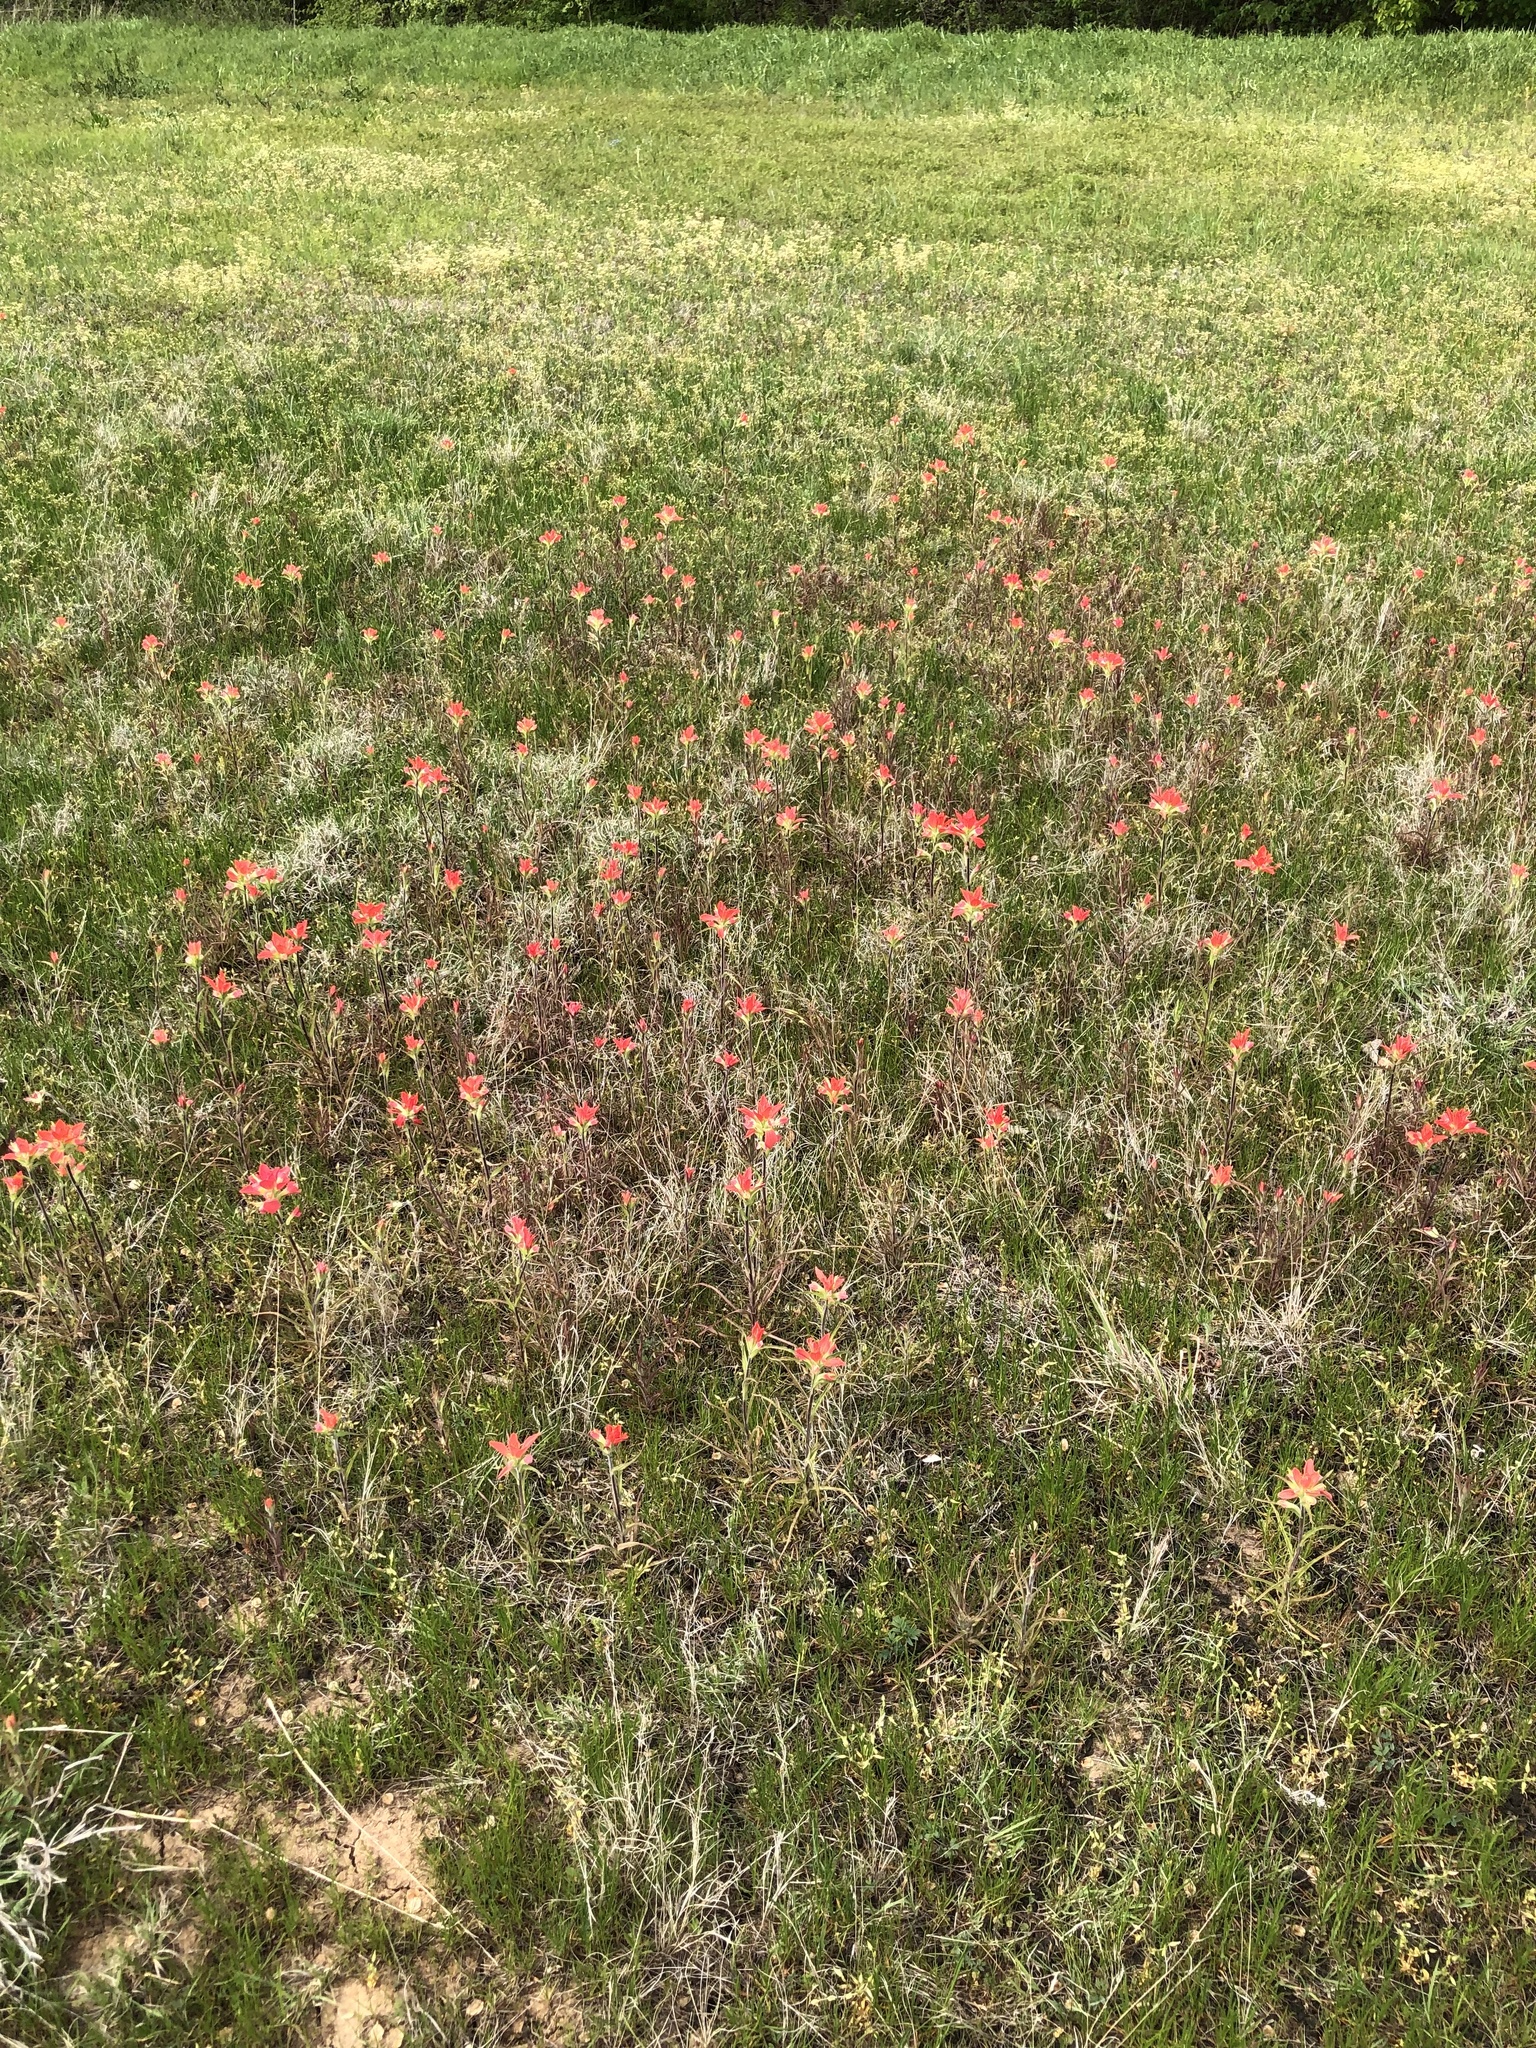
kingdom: Plantae
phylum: Tracheophyta
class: Magnoliopsida
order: Lamiales
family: Orobanchaceae
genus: Castilleja
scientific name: Castilleja indivisa
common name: Texas paintbrush
